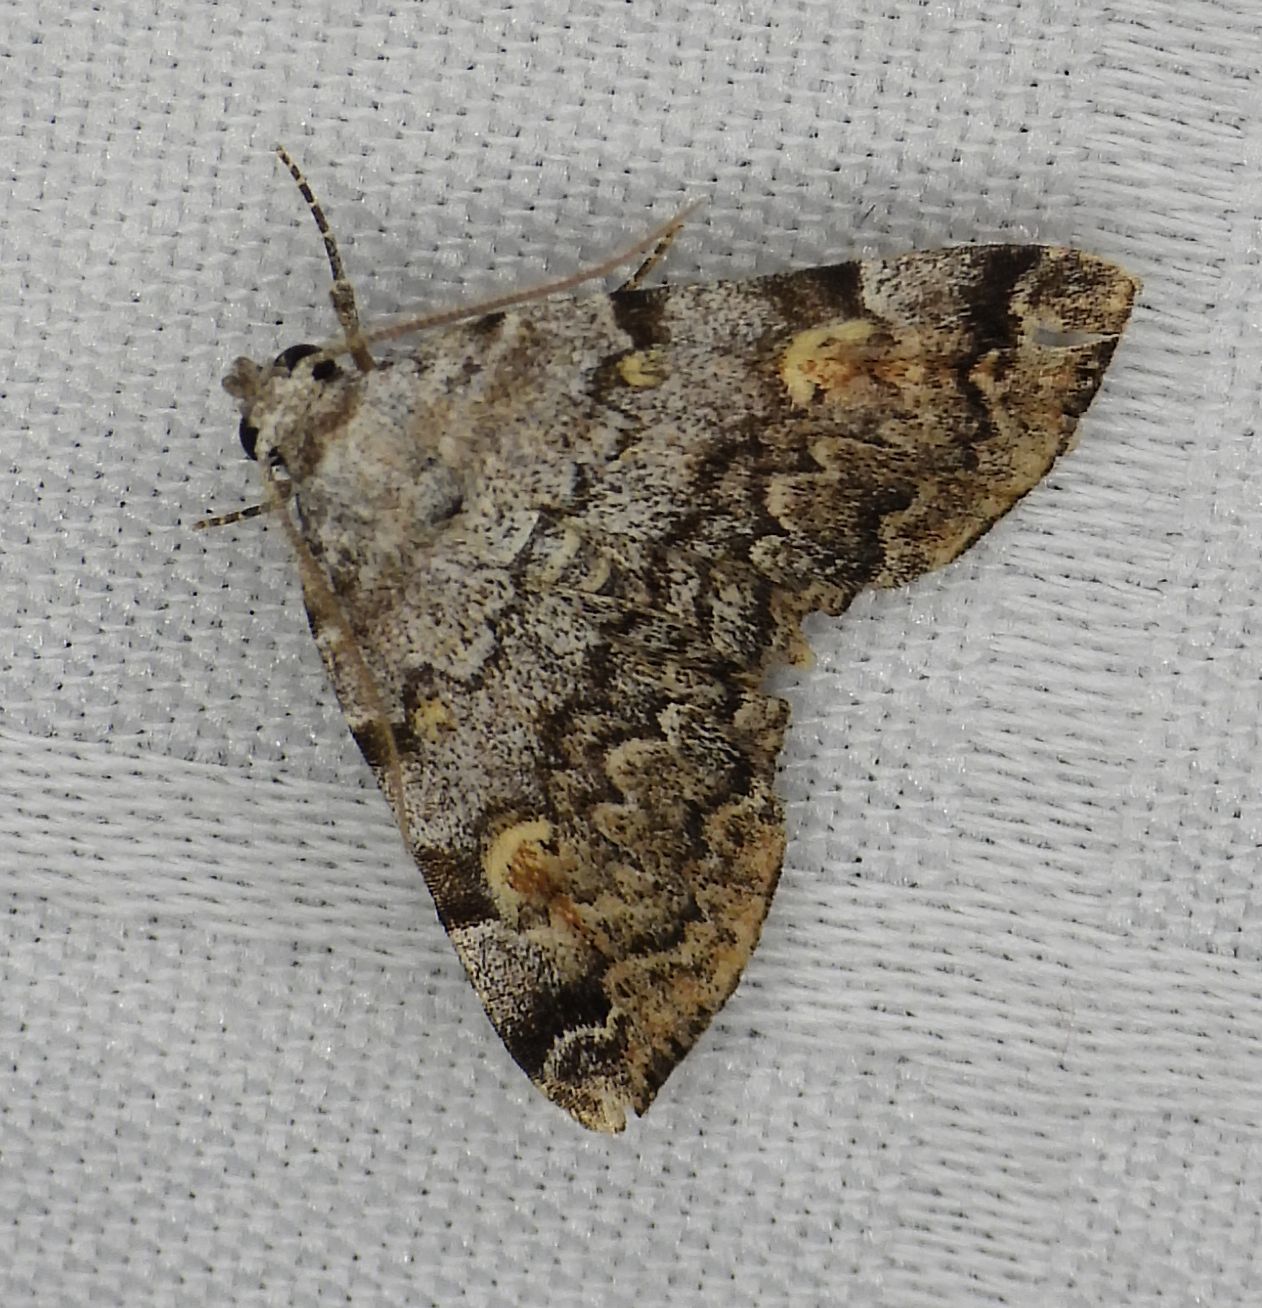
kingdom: Animalia
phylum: Arthropoda
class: Insecta
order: Lepidoptera
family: Erebidae
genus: Idia
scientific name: Idia americalis
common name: American idia moth
